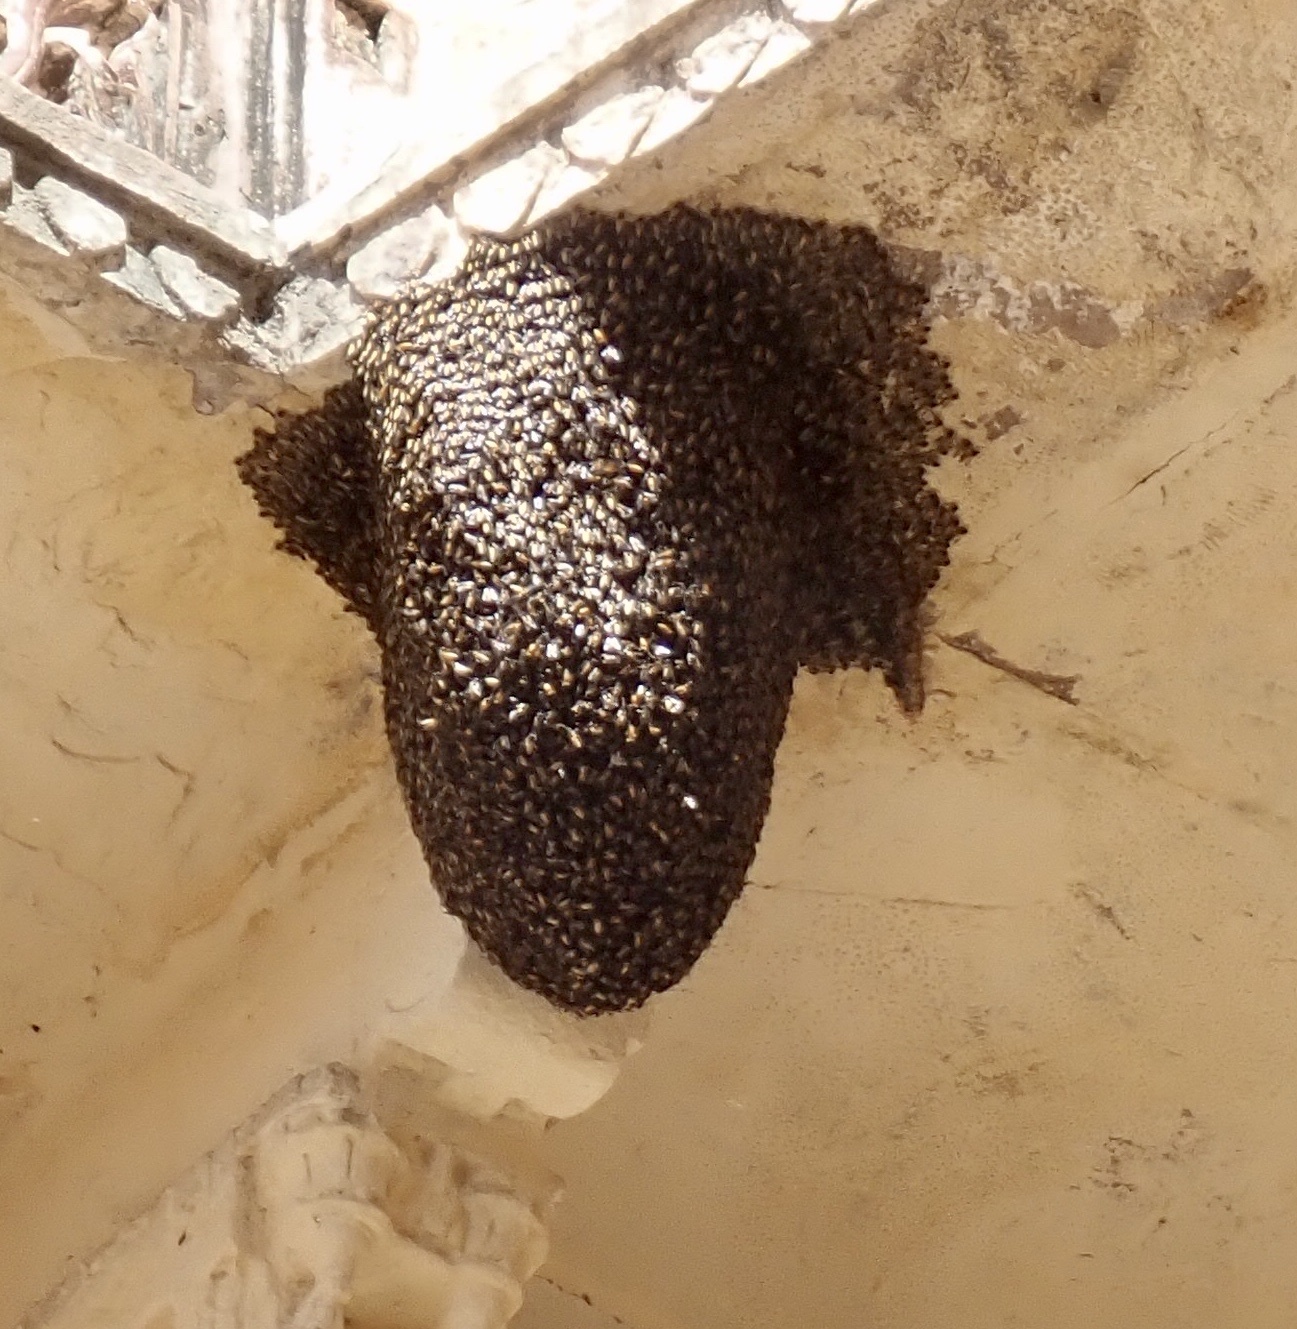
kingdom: Animalia
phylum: Arthropoda
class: Insecta
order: Hymenoptera
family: Apidae
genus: Apis
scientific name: Apis dorsata
